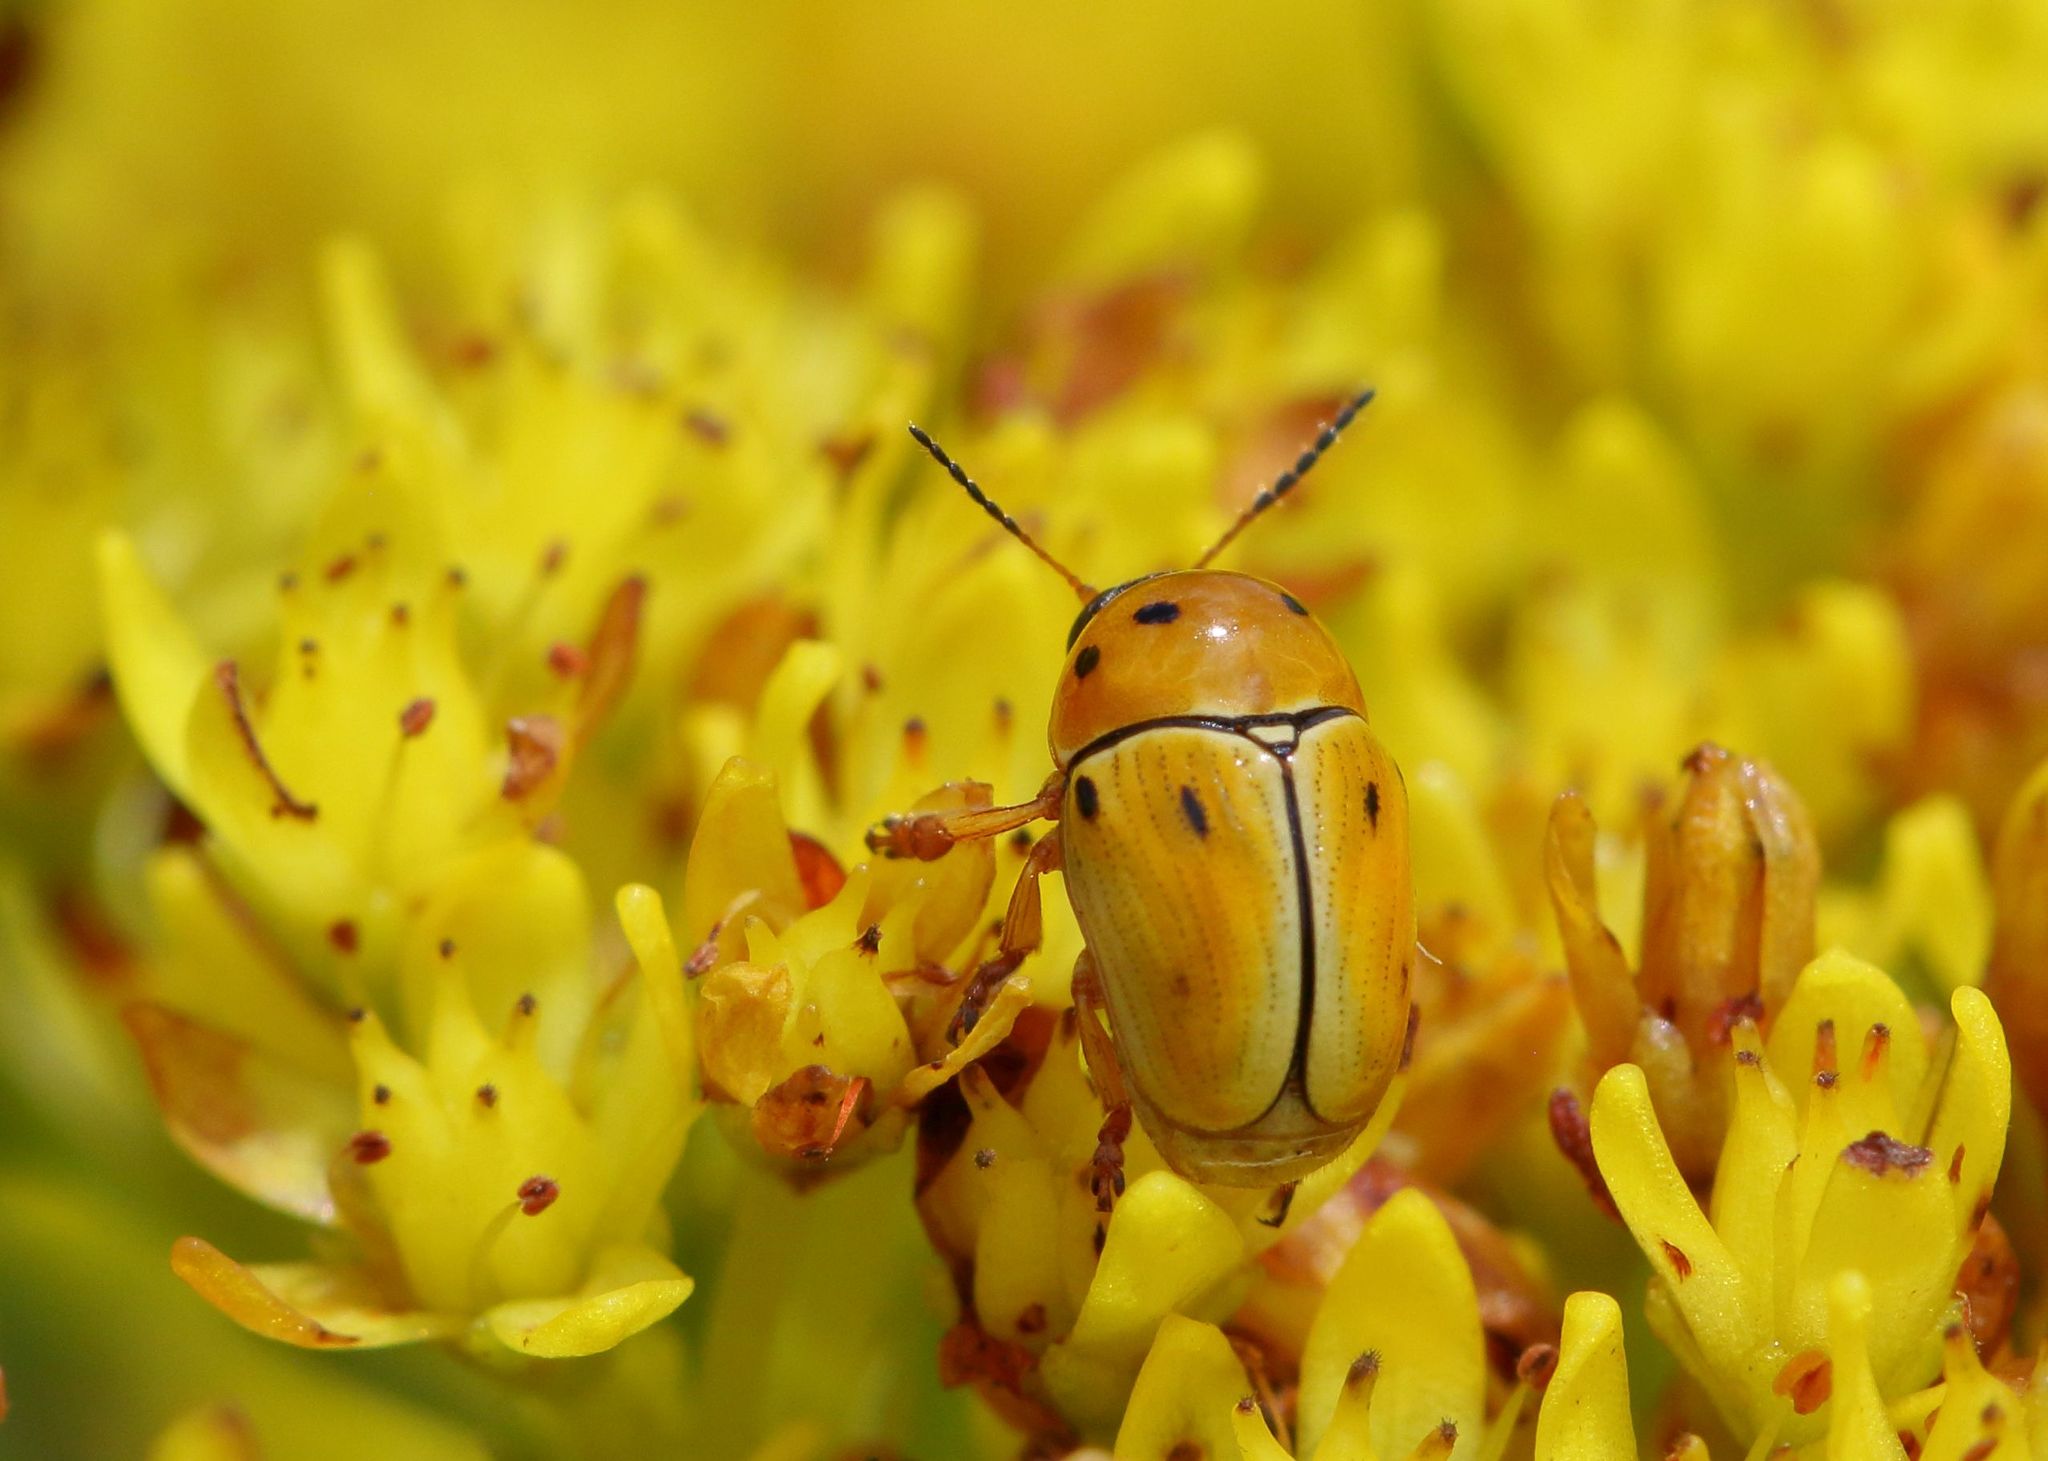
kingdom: Animalia
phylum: Arthropoda
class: Insecta
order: Coleoptera
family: Chrysomelidae
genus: Cryptocephalus
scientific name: Cryptocephalus
